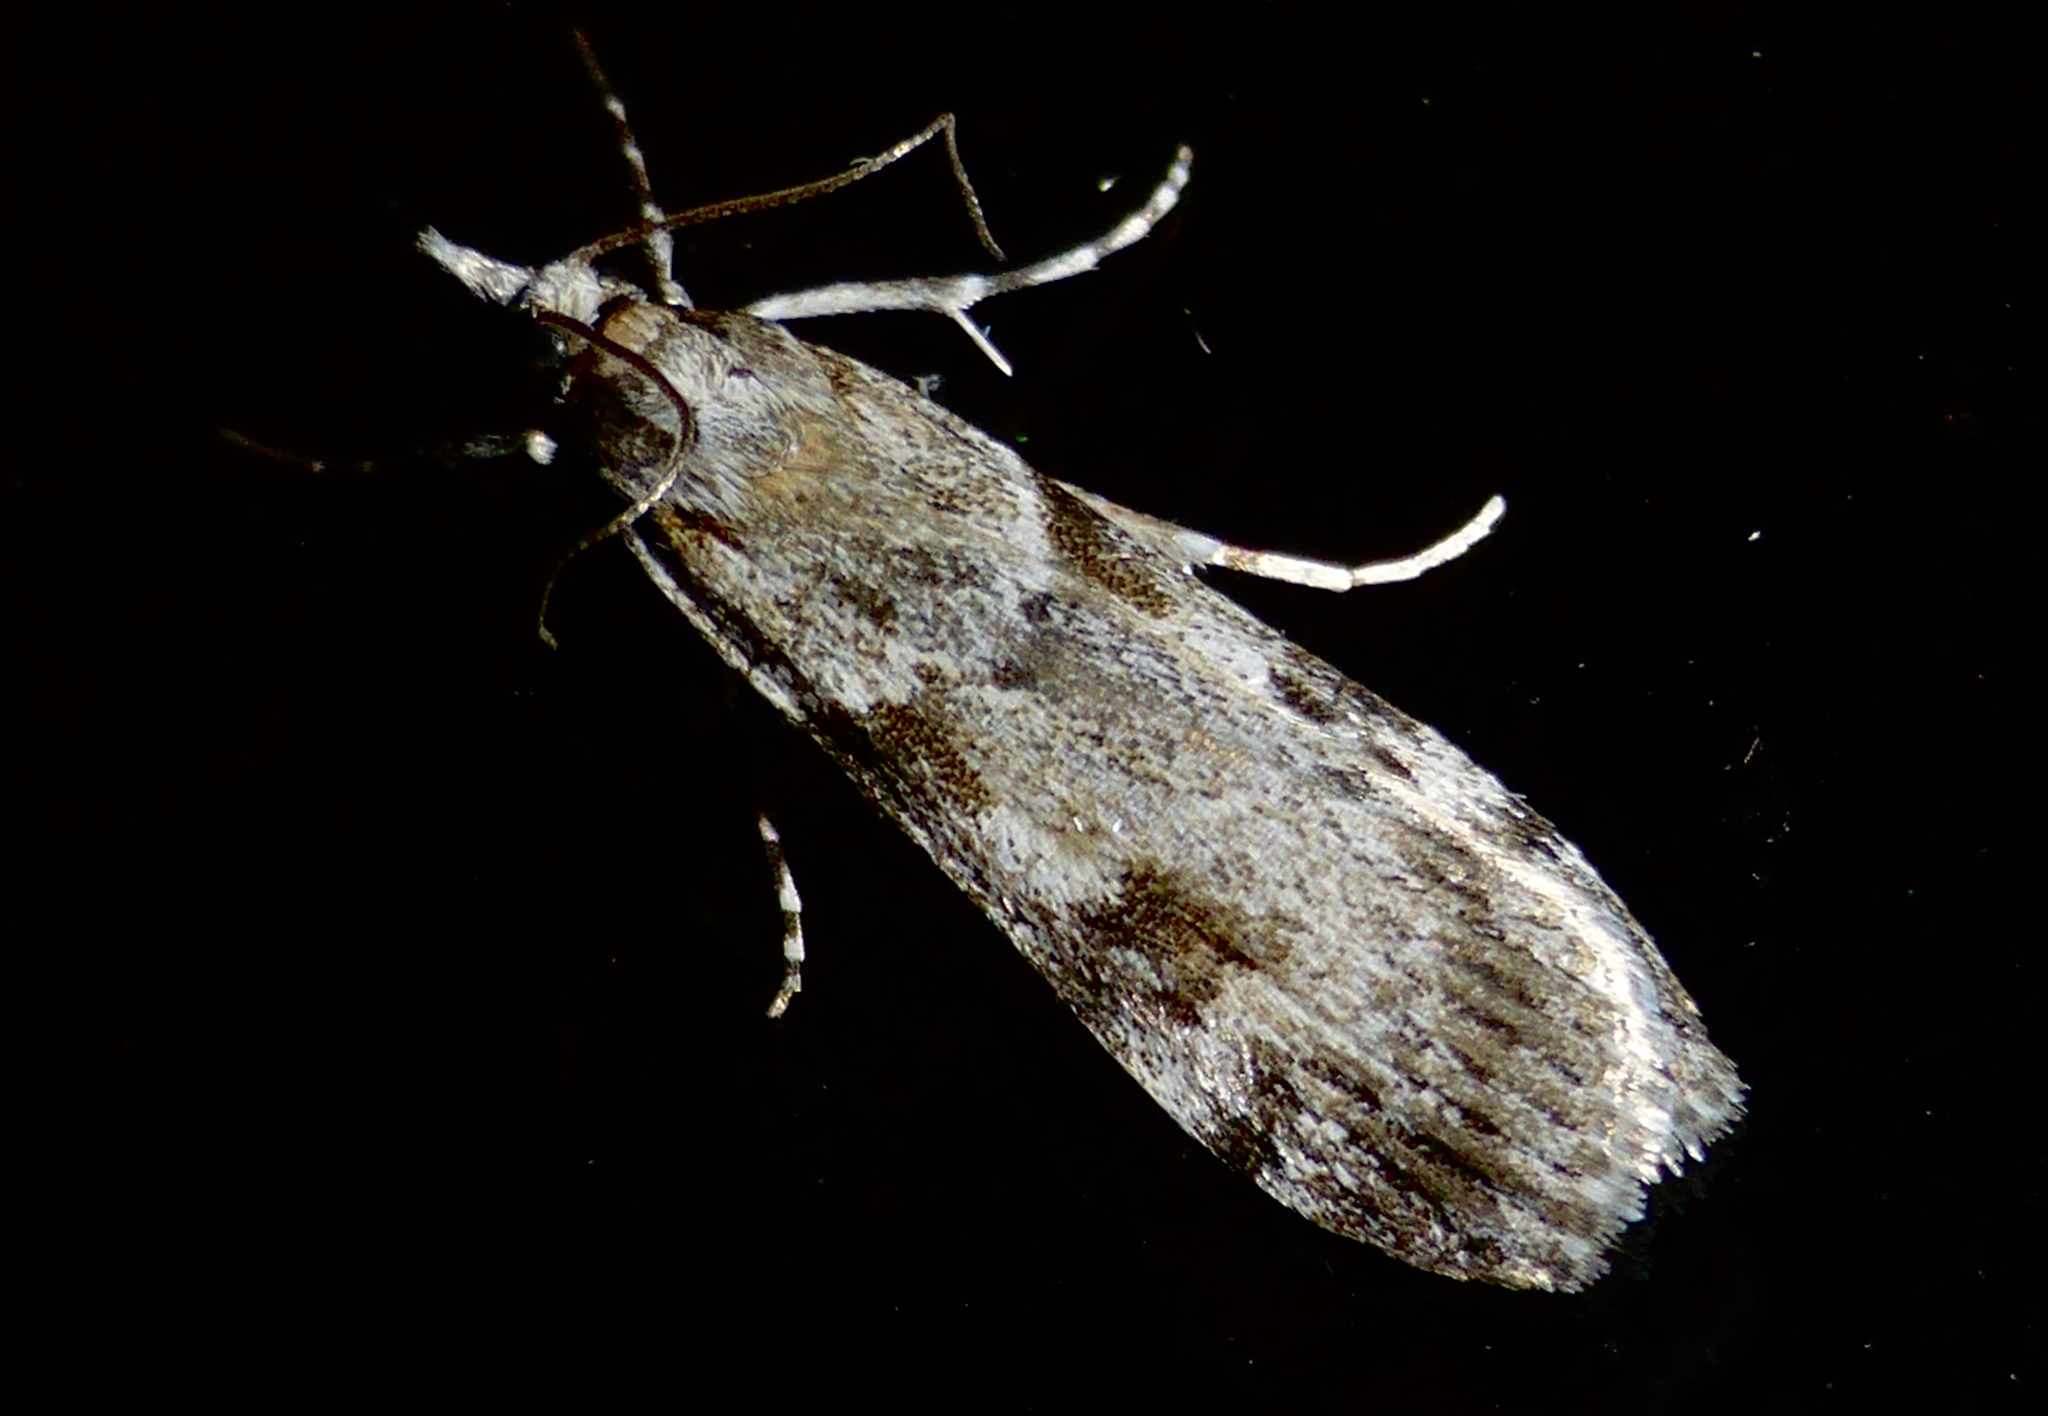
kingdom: Animalia
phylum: Arthropoda
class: Insecta
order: Lepidoptera
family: Crambidae
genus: Scoparia
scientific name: Scoparia halopis
